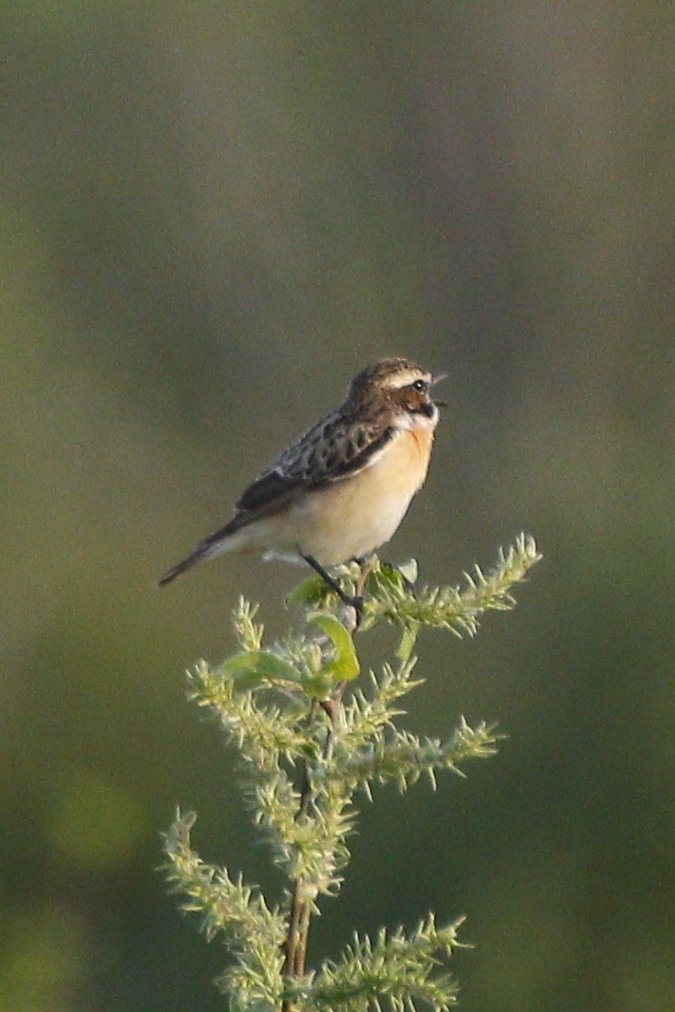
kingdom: Animalia
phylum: Chordata
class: Aves
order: Passeriformes
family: Muscicapidae
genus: Saxicola
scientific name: Saxicola rubetra
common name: Whinchat
